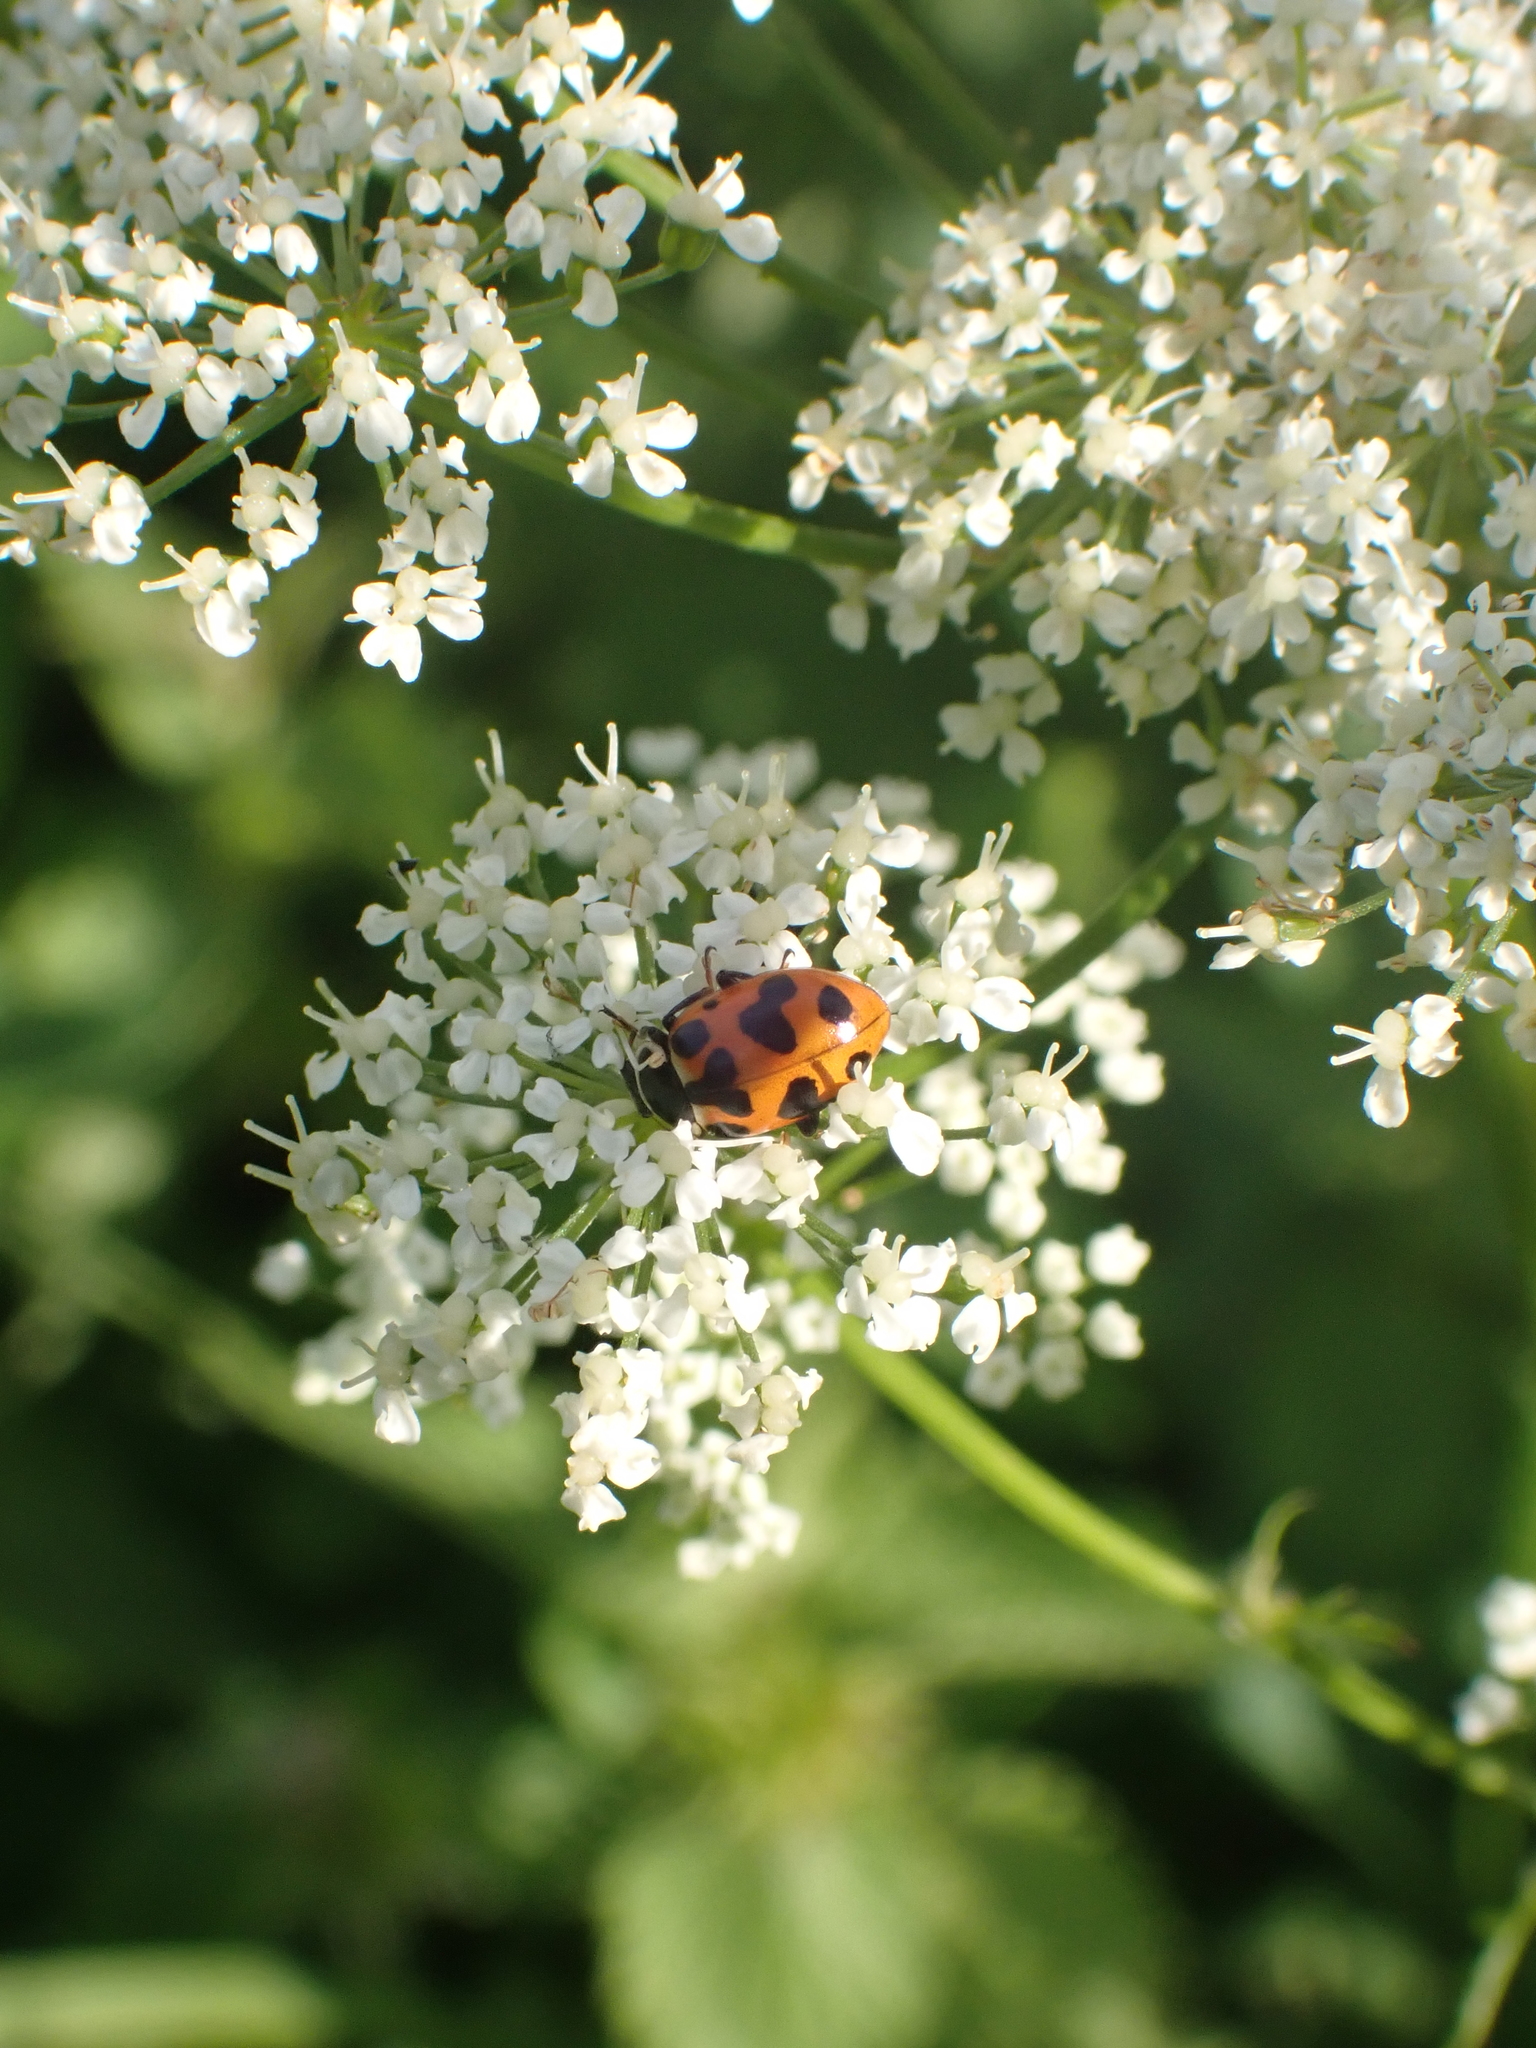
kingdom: Animalia
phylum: Arthropoda
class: Insecta
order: Coleoptera
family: Coccinellidae
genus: Hippodamia
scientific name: Hippodamia septemmaculata
